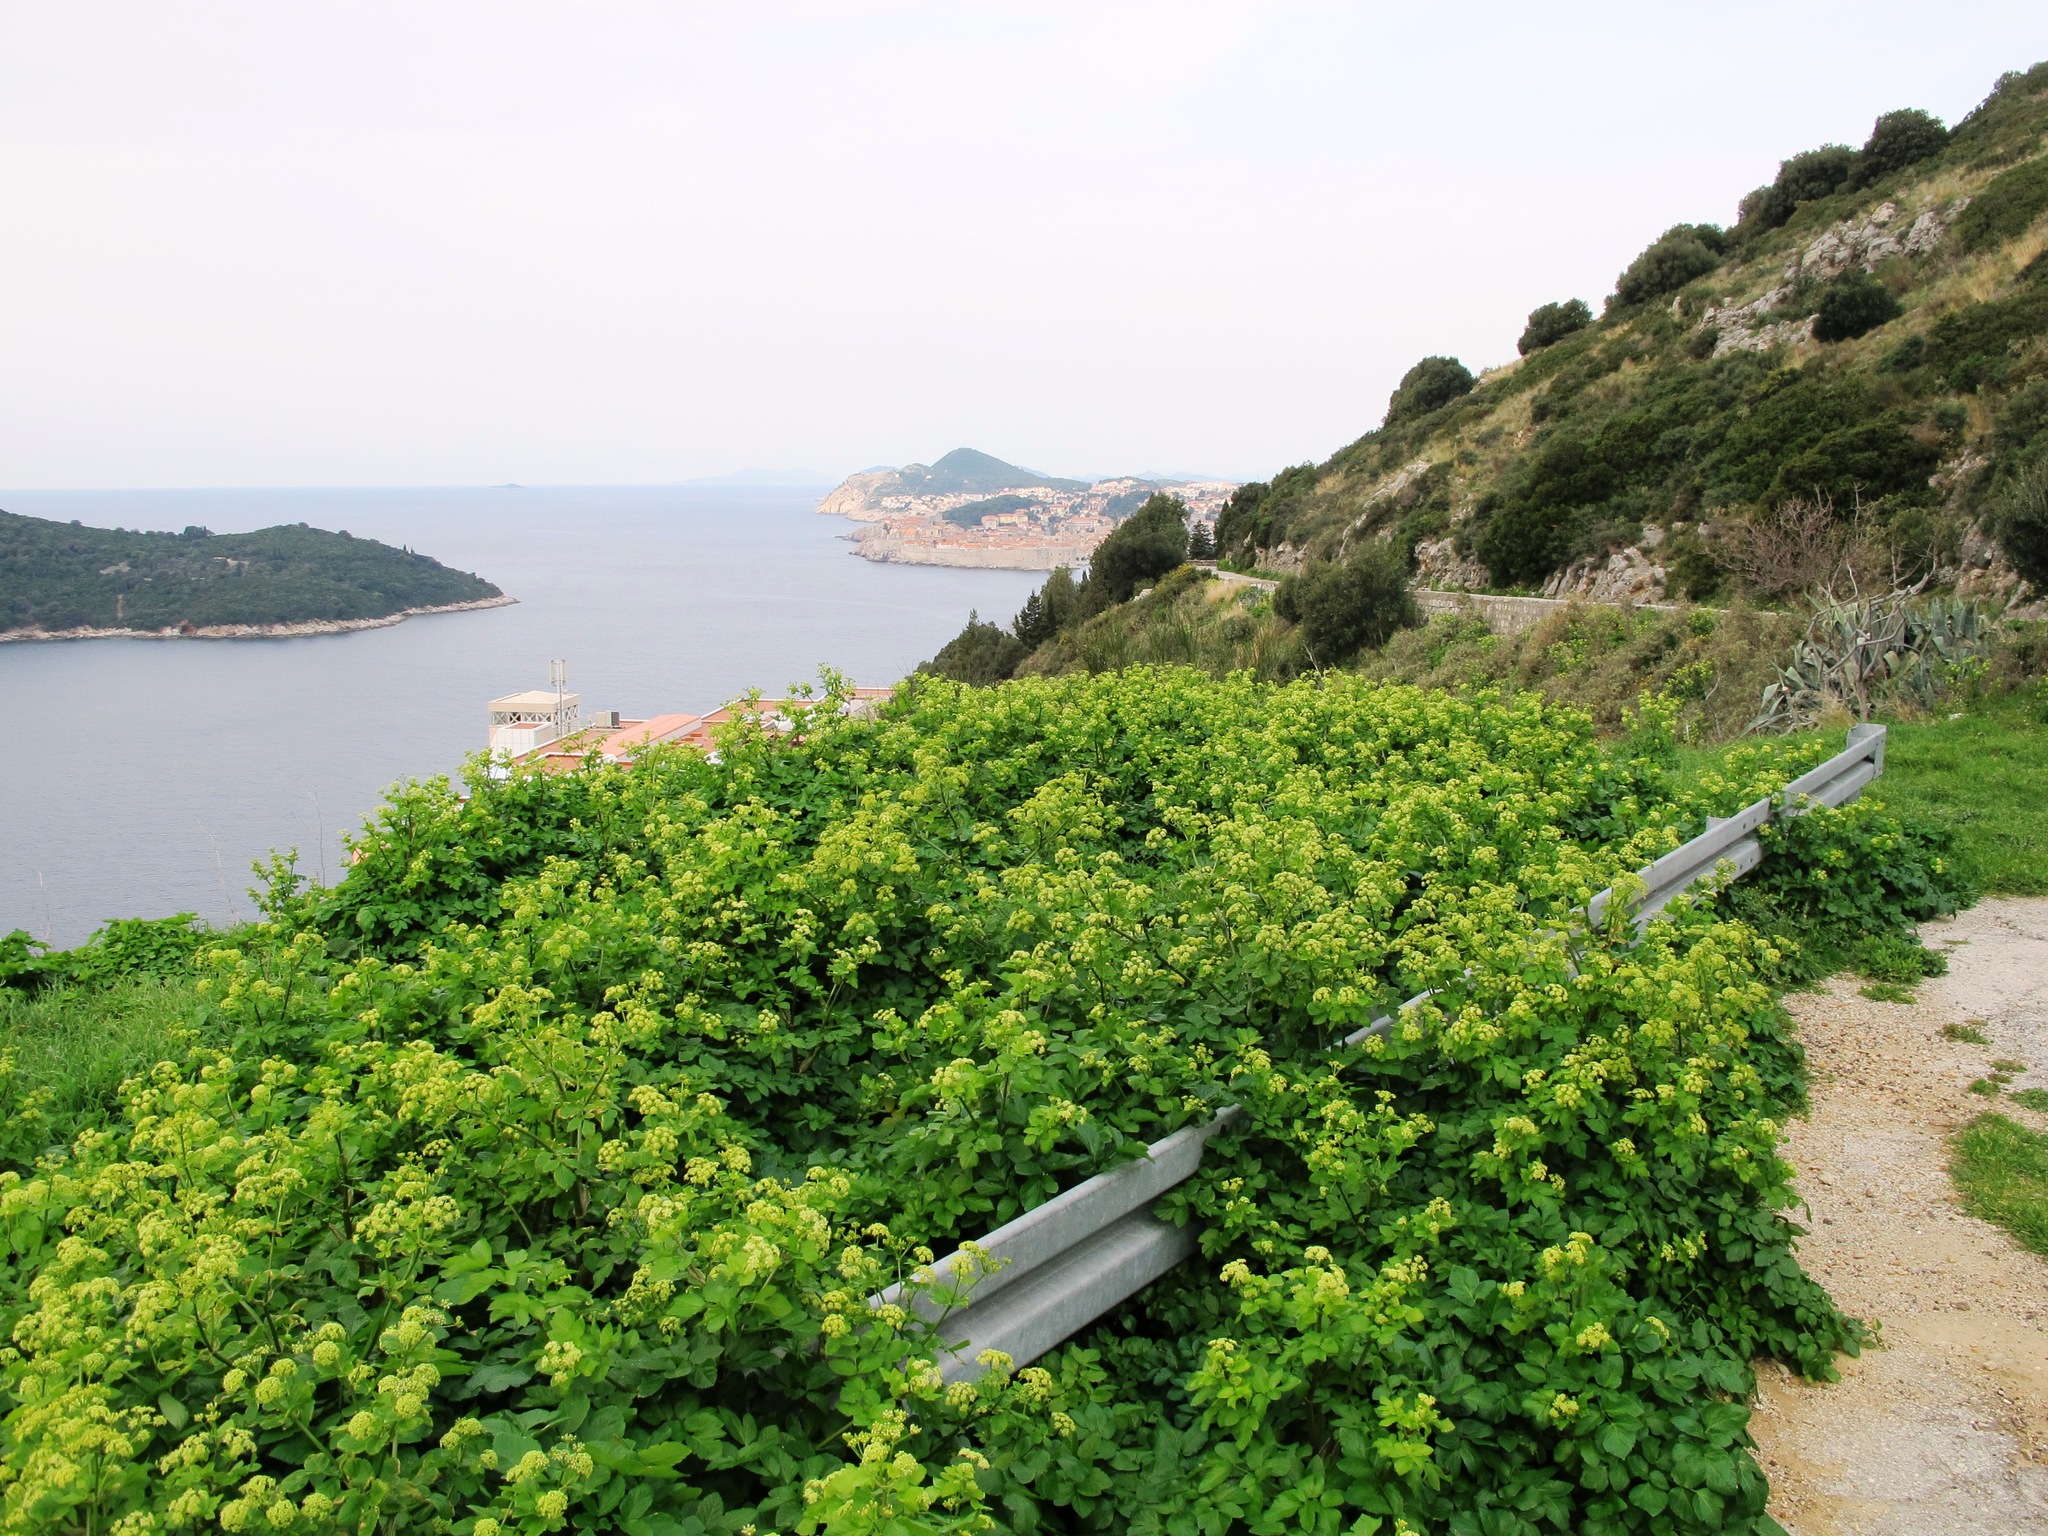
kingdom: Plantae
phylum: Tracheophyta
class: Magnoliopsida
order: Apiales
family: Apiaceae
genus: Smyrnium
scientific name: Smyrnium olusatrum
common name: Alexanders
